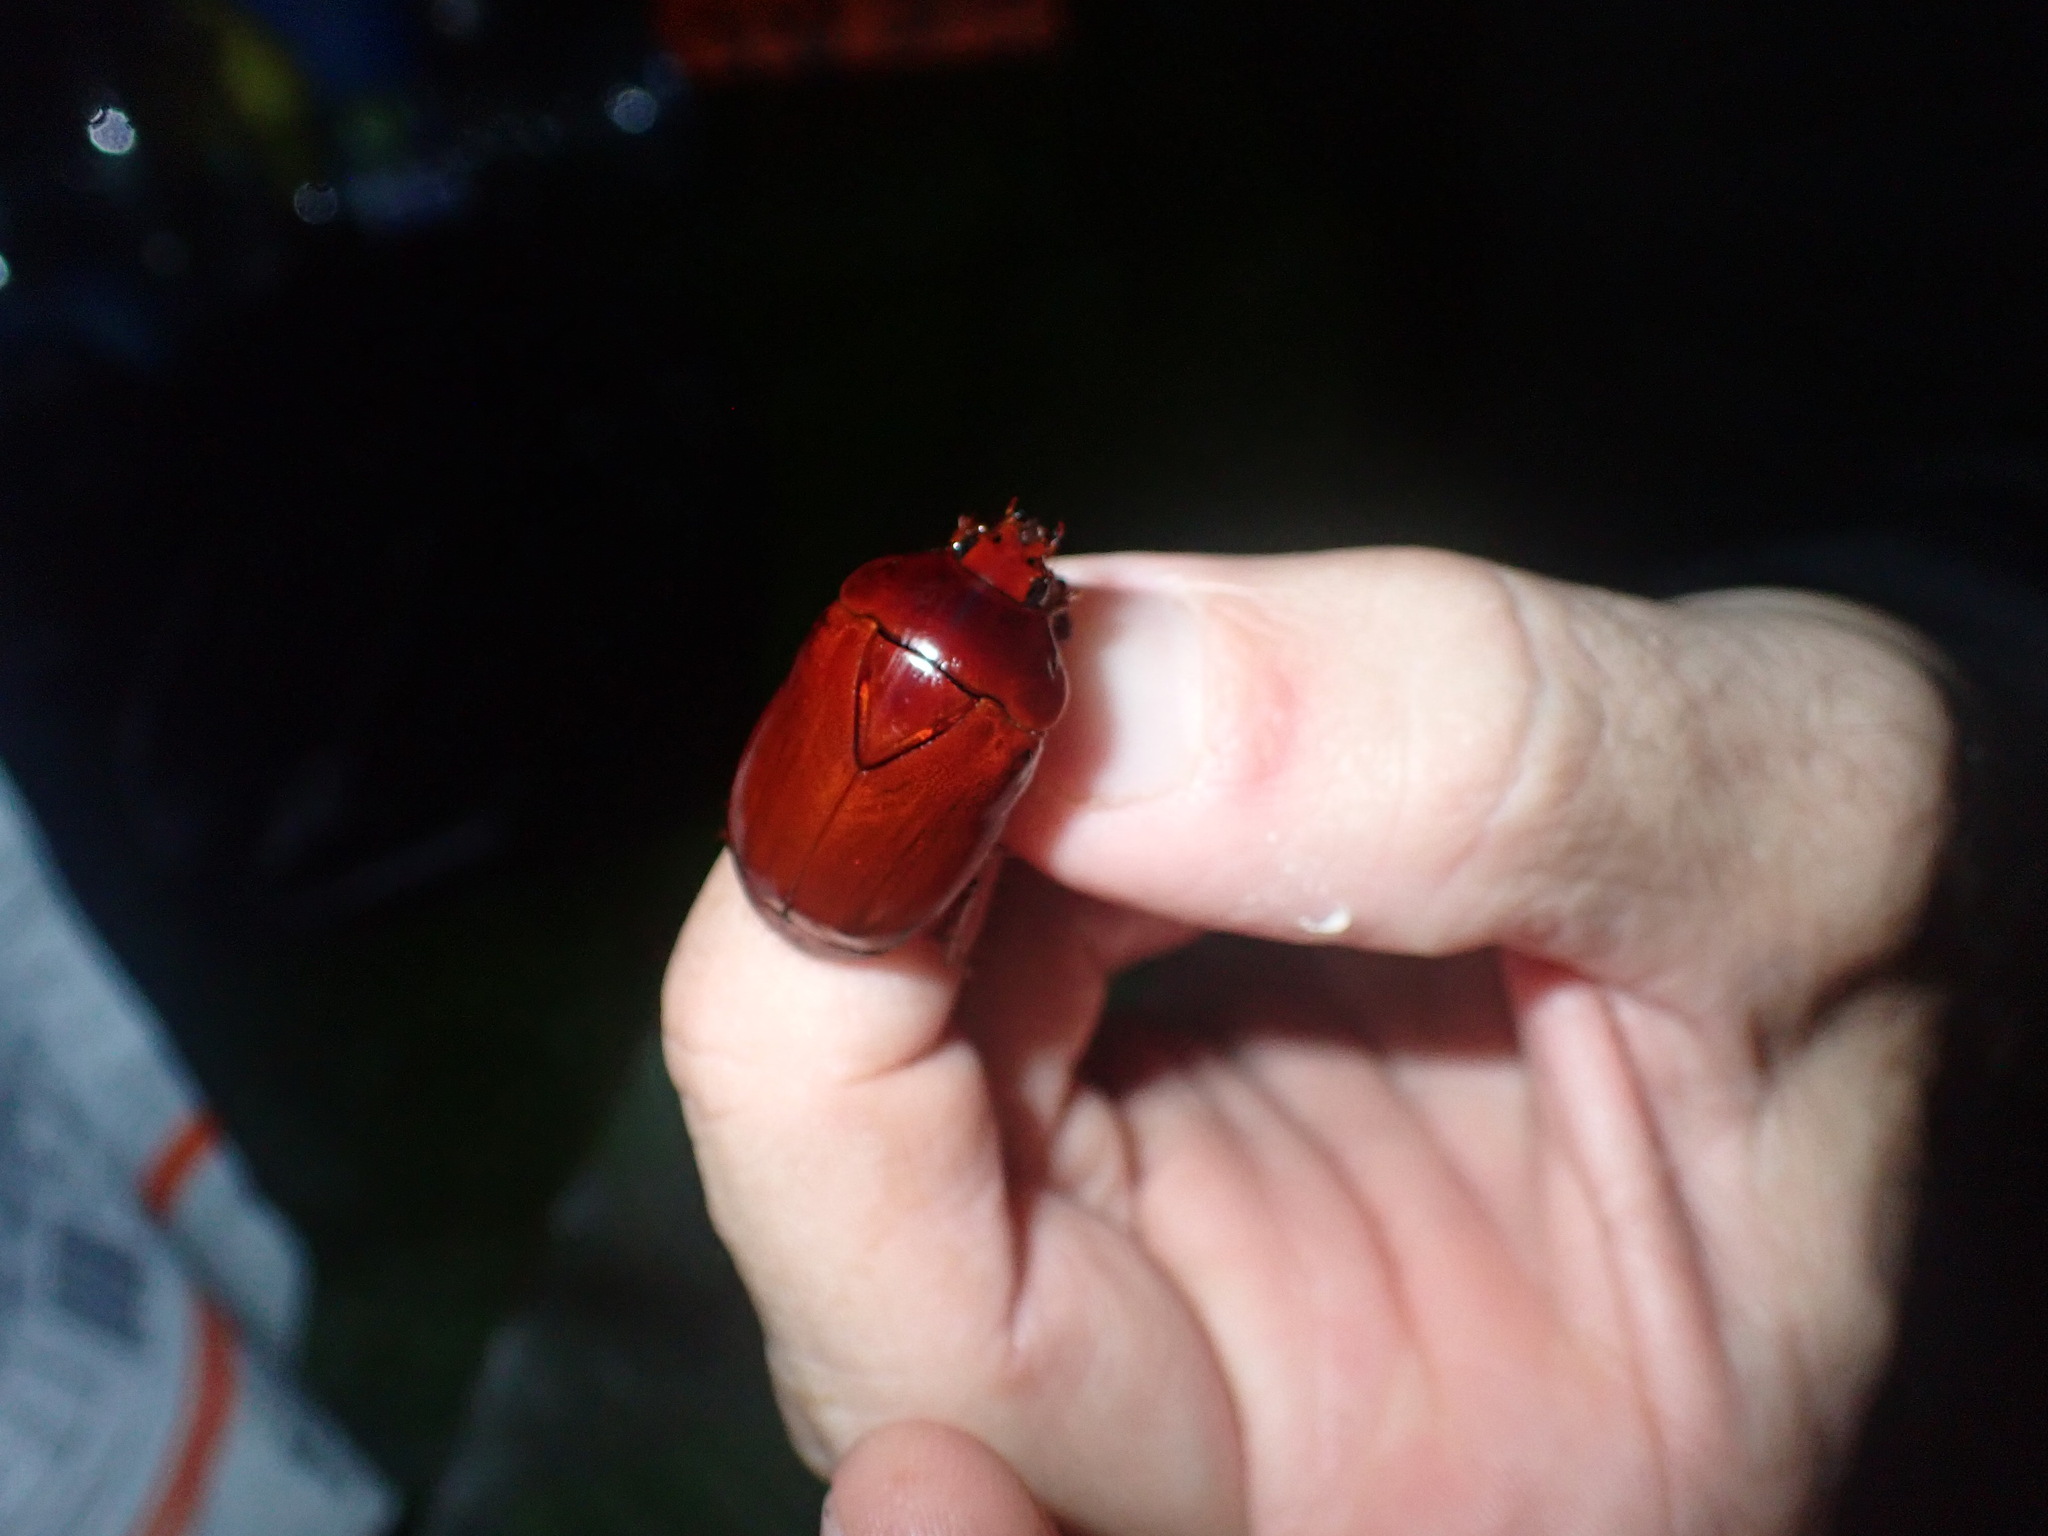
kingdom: Animalia
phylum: Arthropoda
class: Insecta
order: Coleoptera
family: Scarabaeidae
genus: Lagochile
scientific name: Lagochile brunnea
